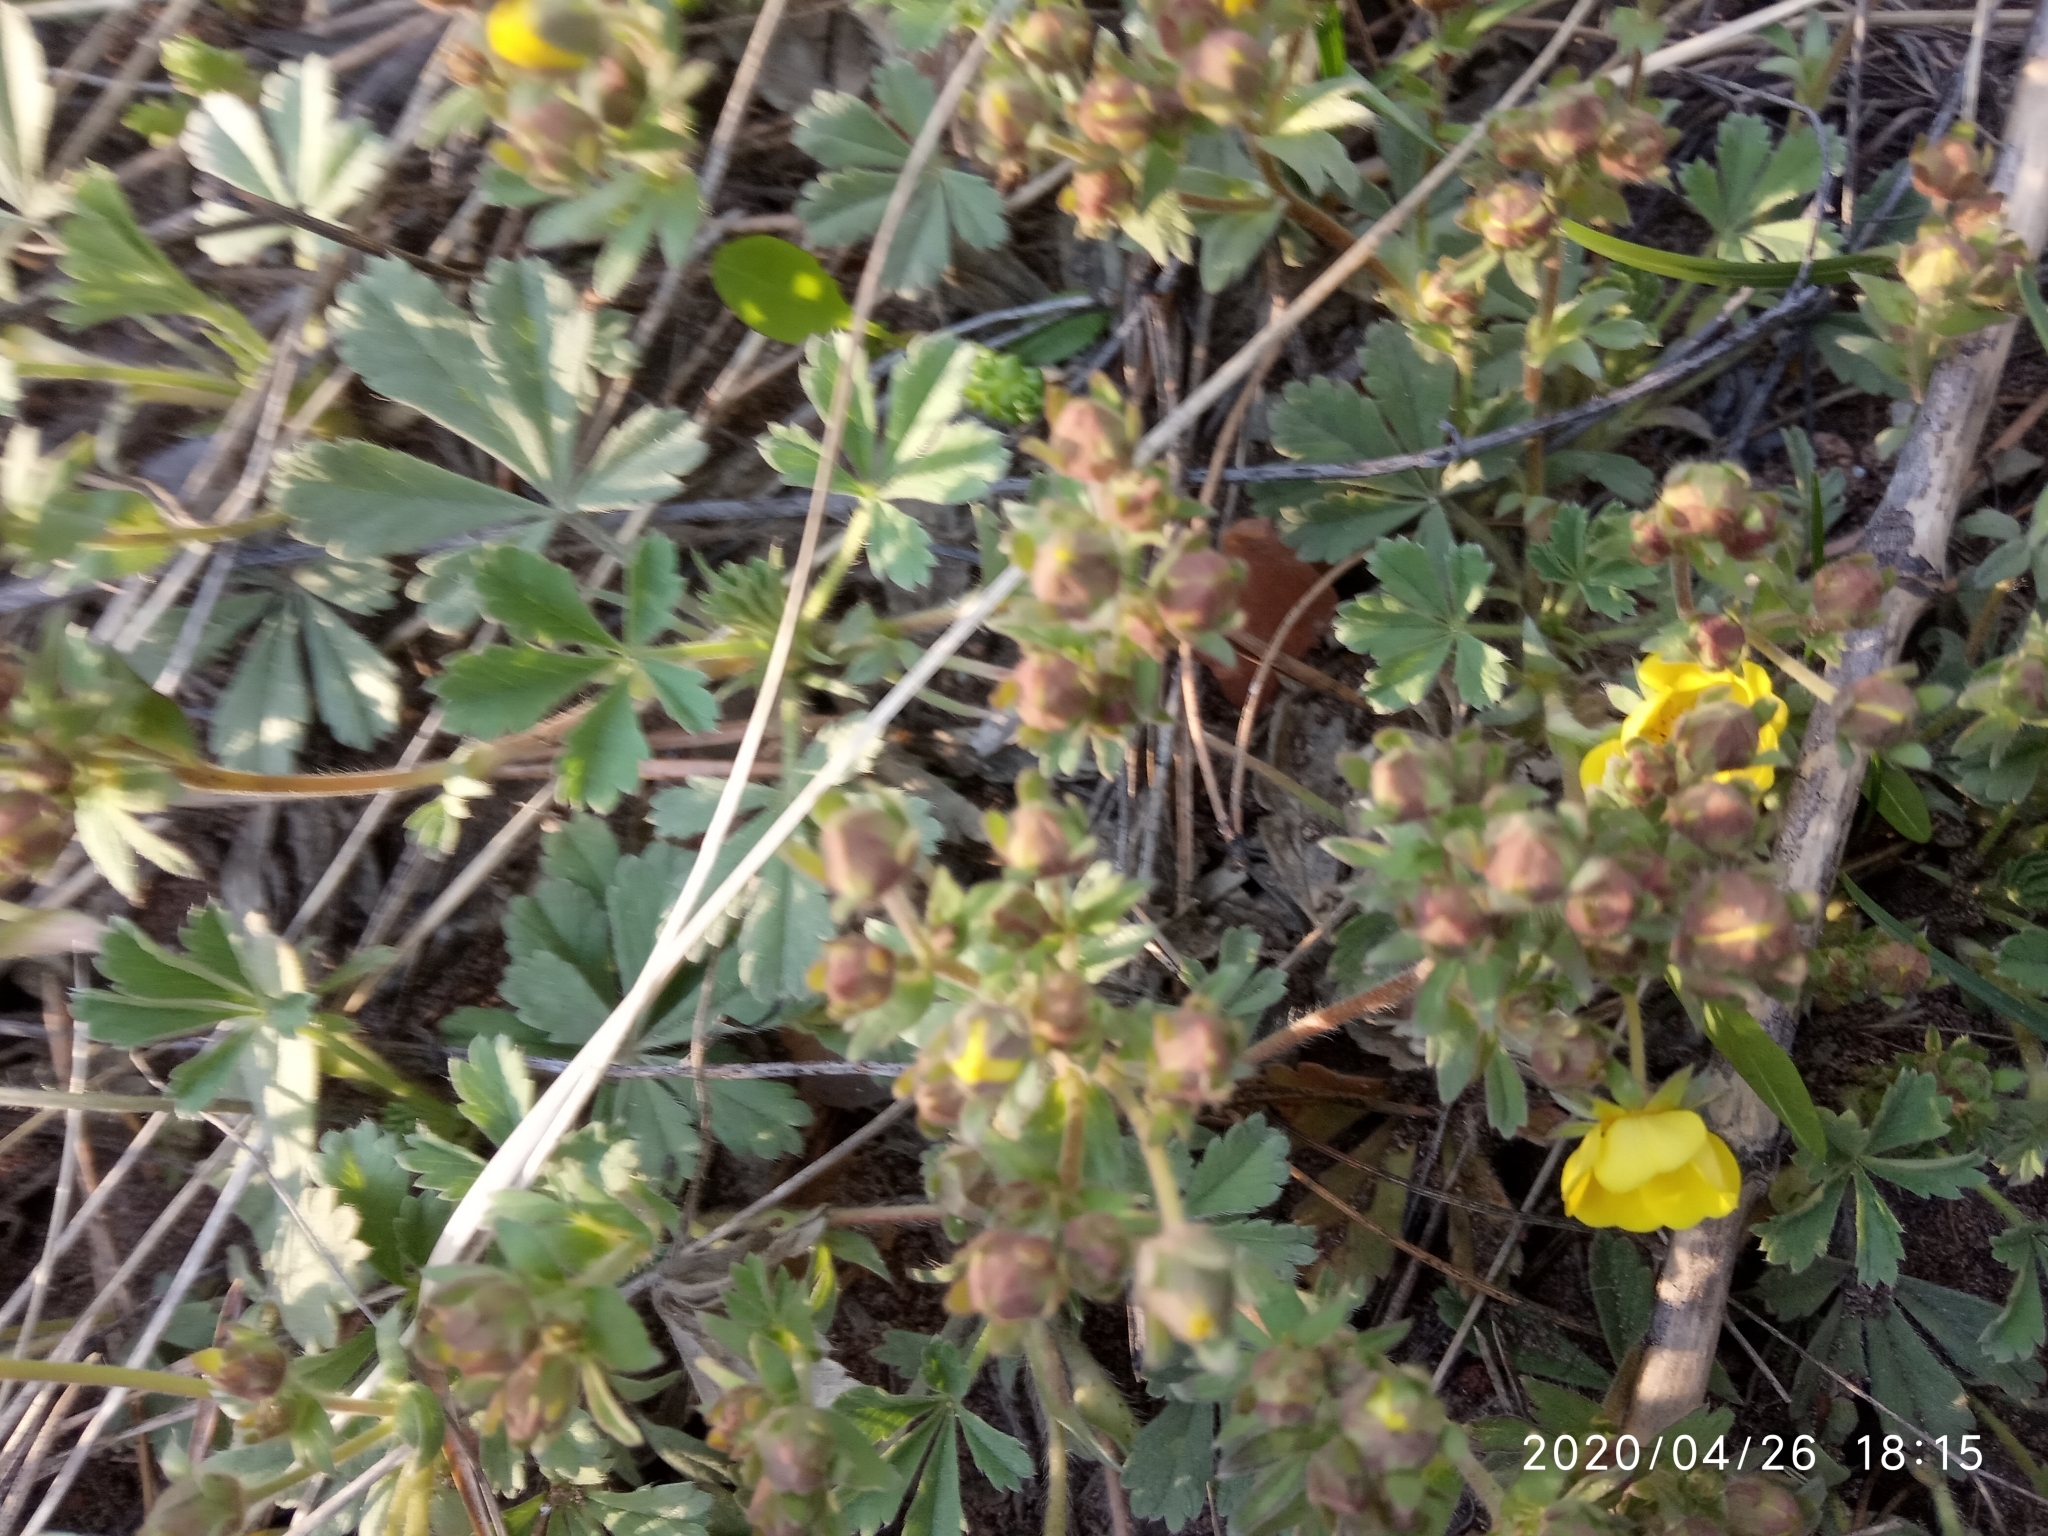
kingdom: Plantae
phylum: Tracheophyta
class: Magnoliopsida
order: Rosales
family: Rosaceae
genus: Potentilla
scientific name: Potentilla incana
